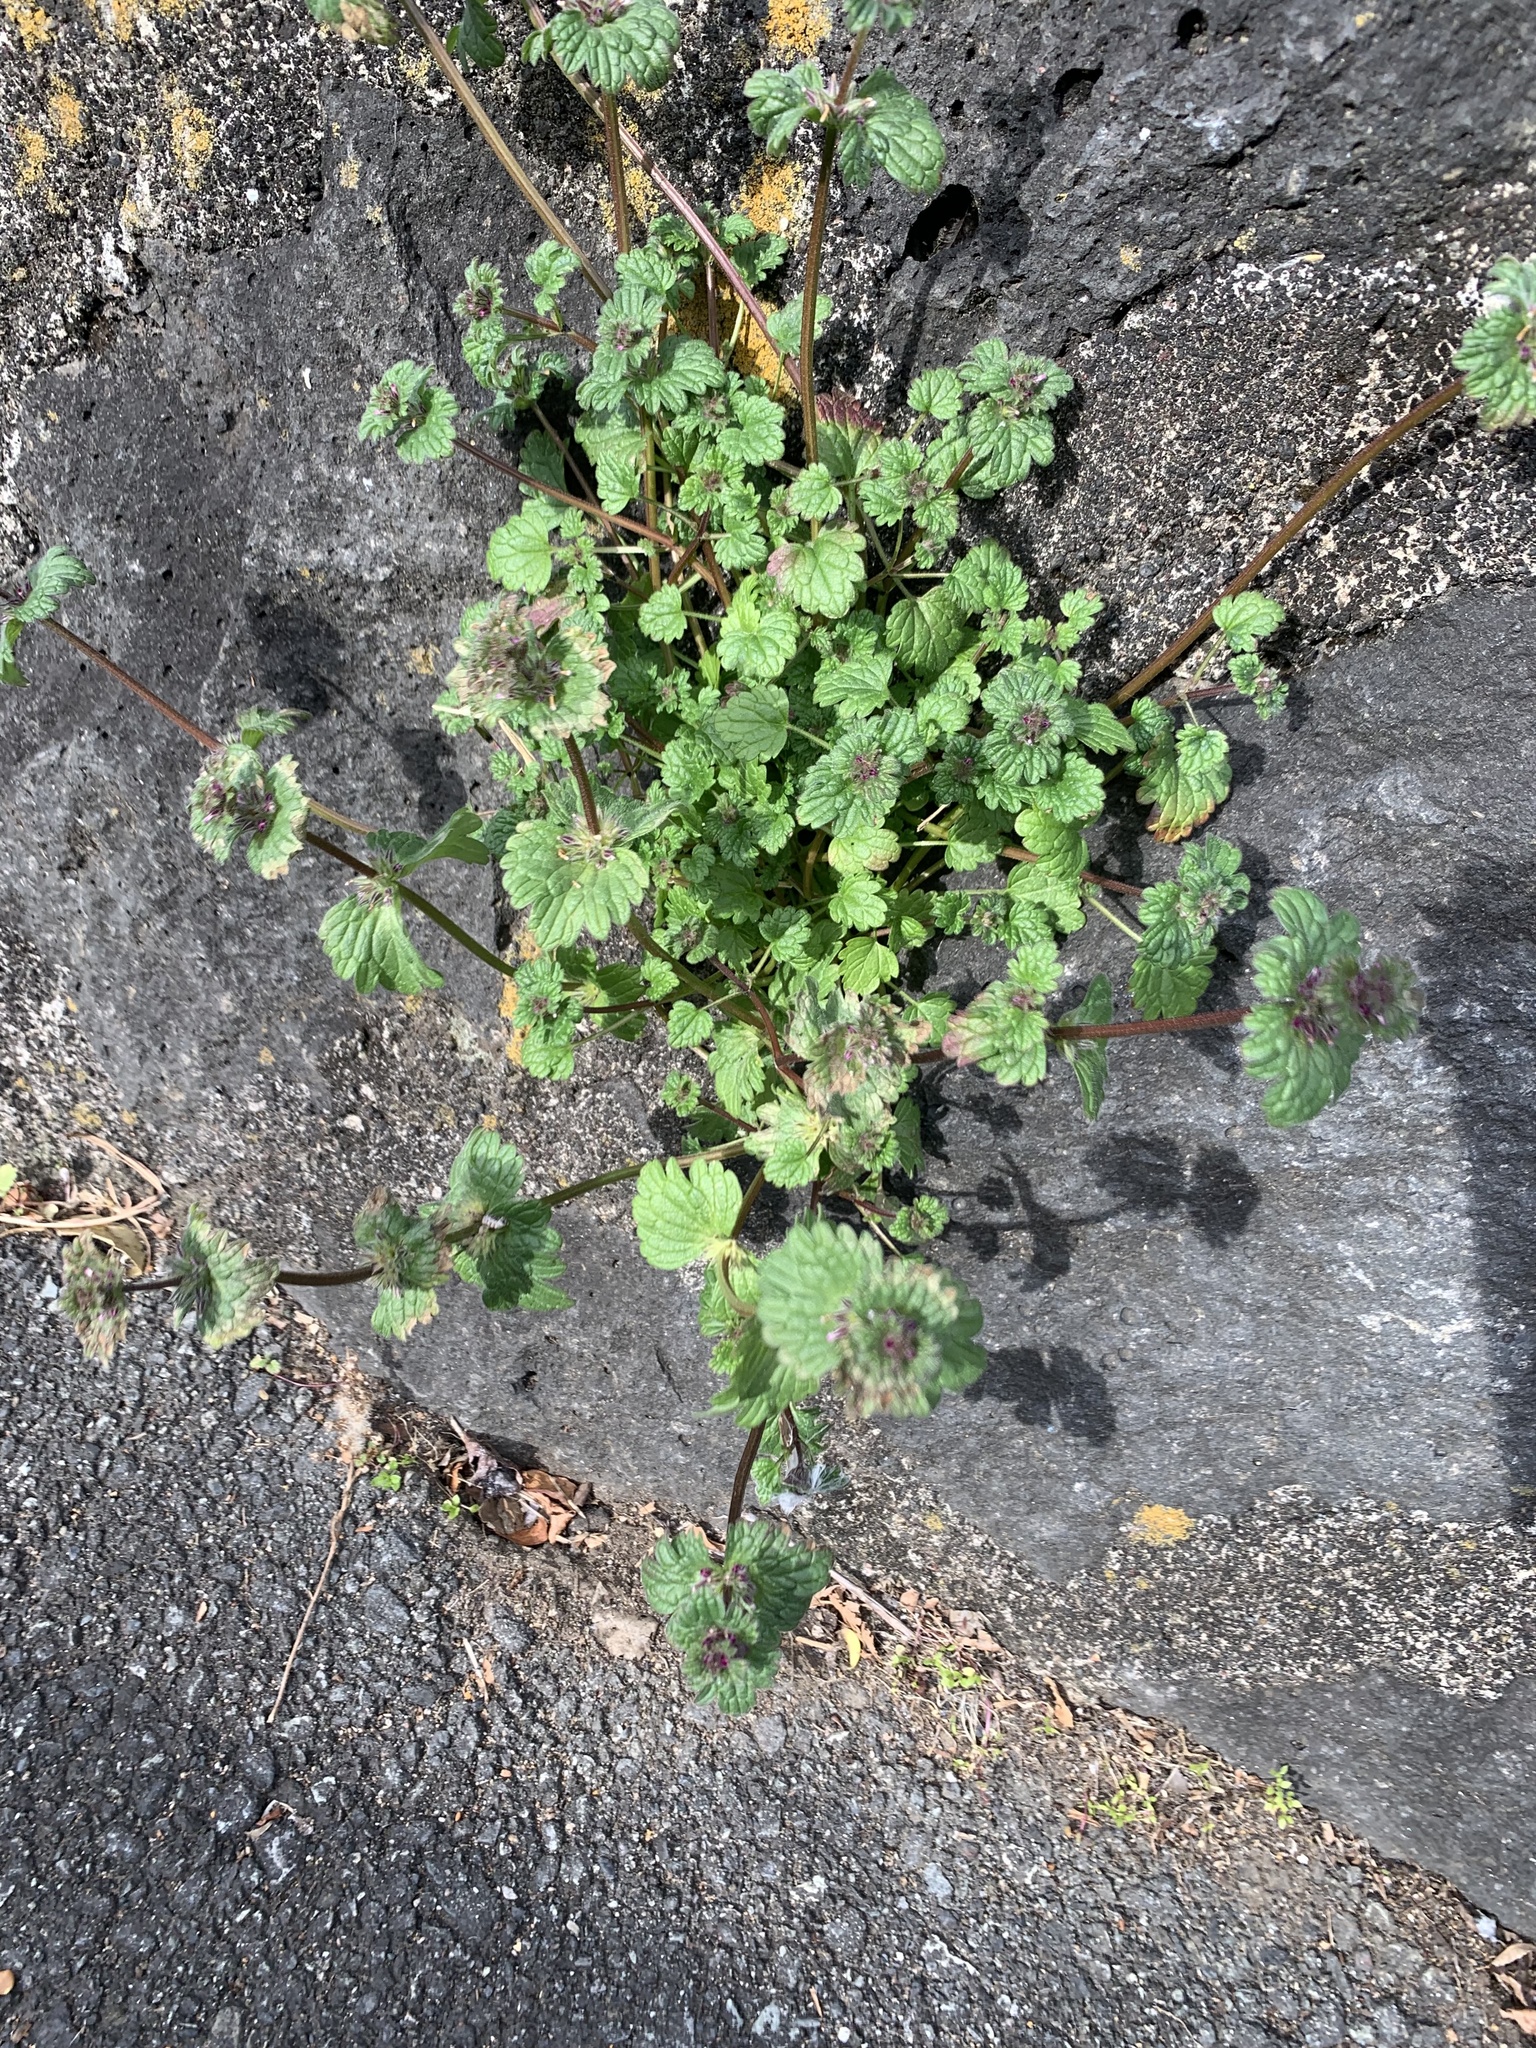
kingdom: Plantae
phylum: Tracheophyta
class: Magnoliopsida
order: Lamiales
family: Lamiaceae
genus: Lamium
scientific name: Lamium amplexicaule
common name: Henbit dead-nettle
